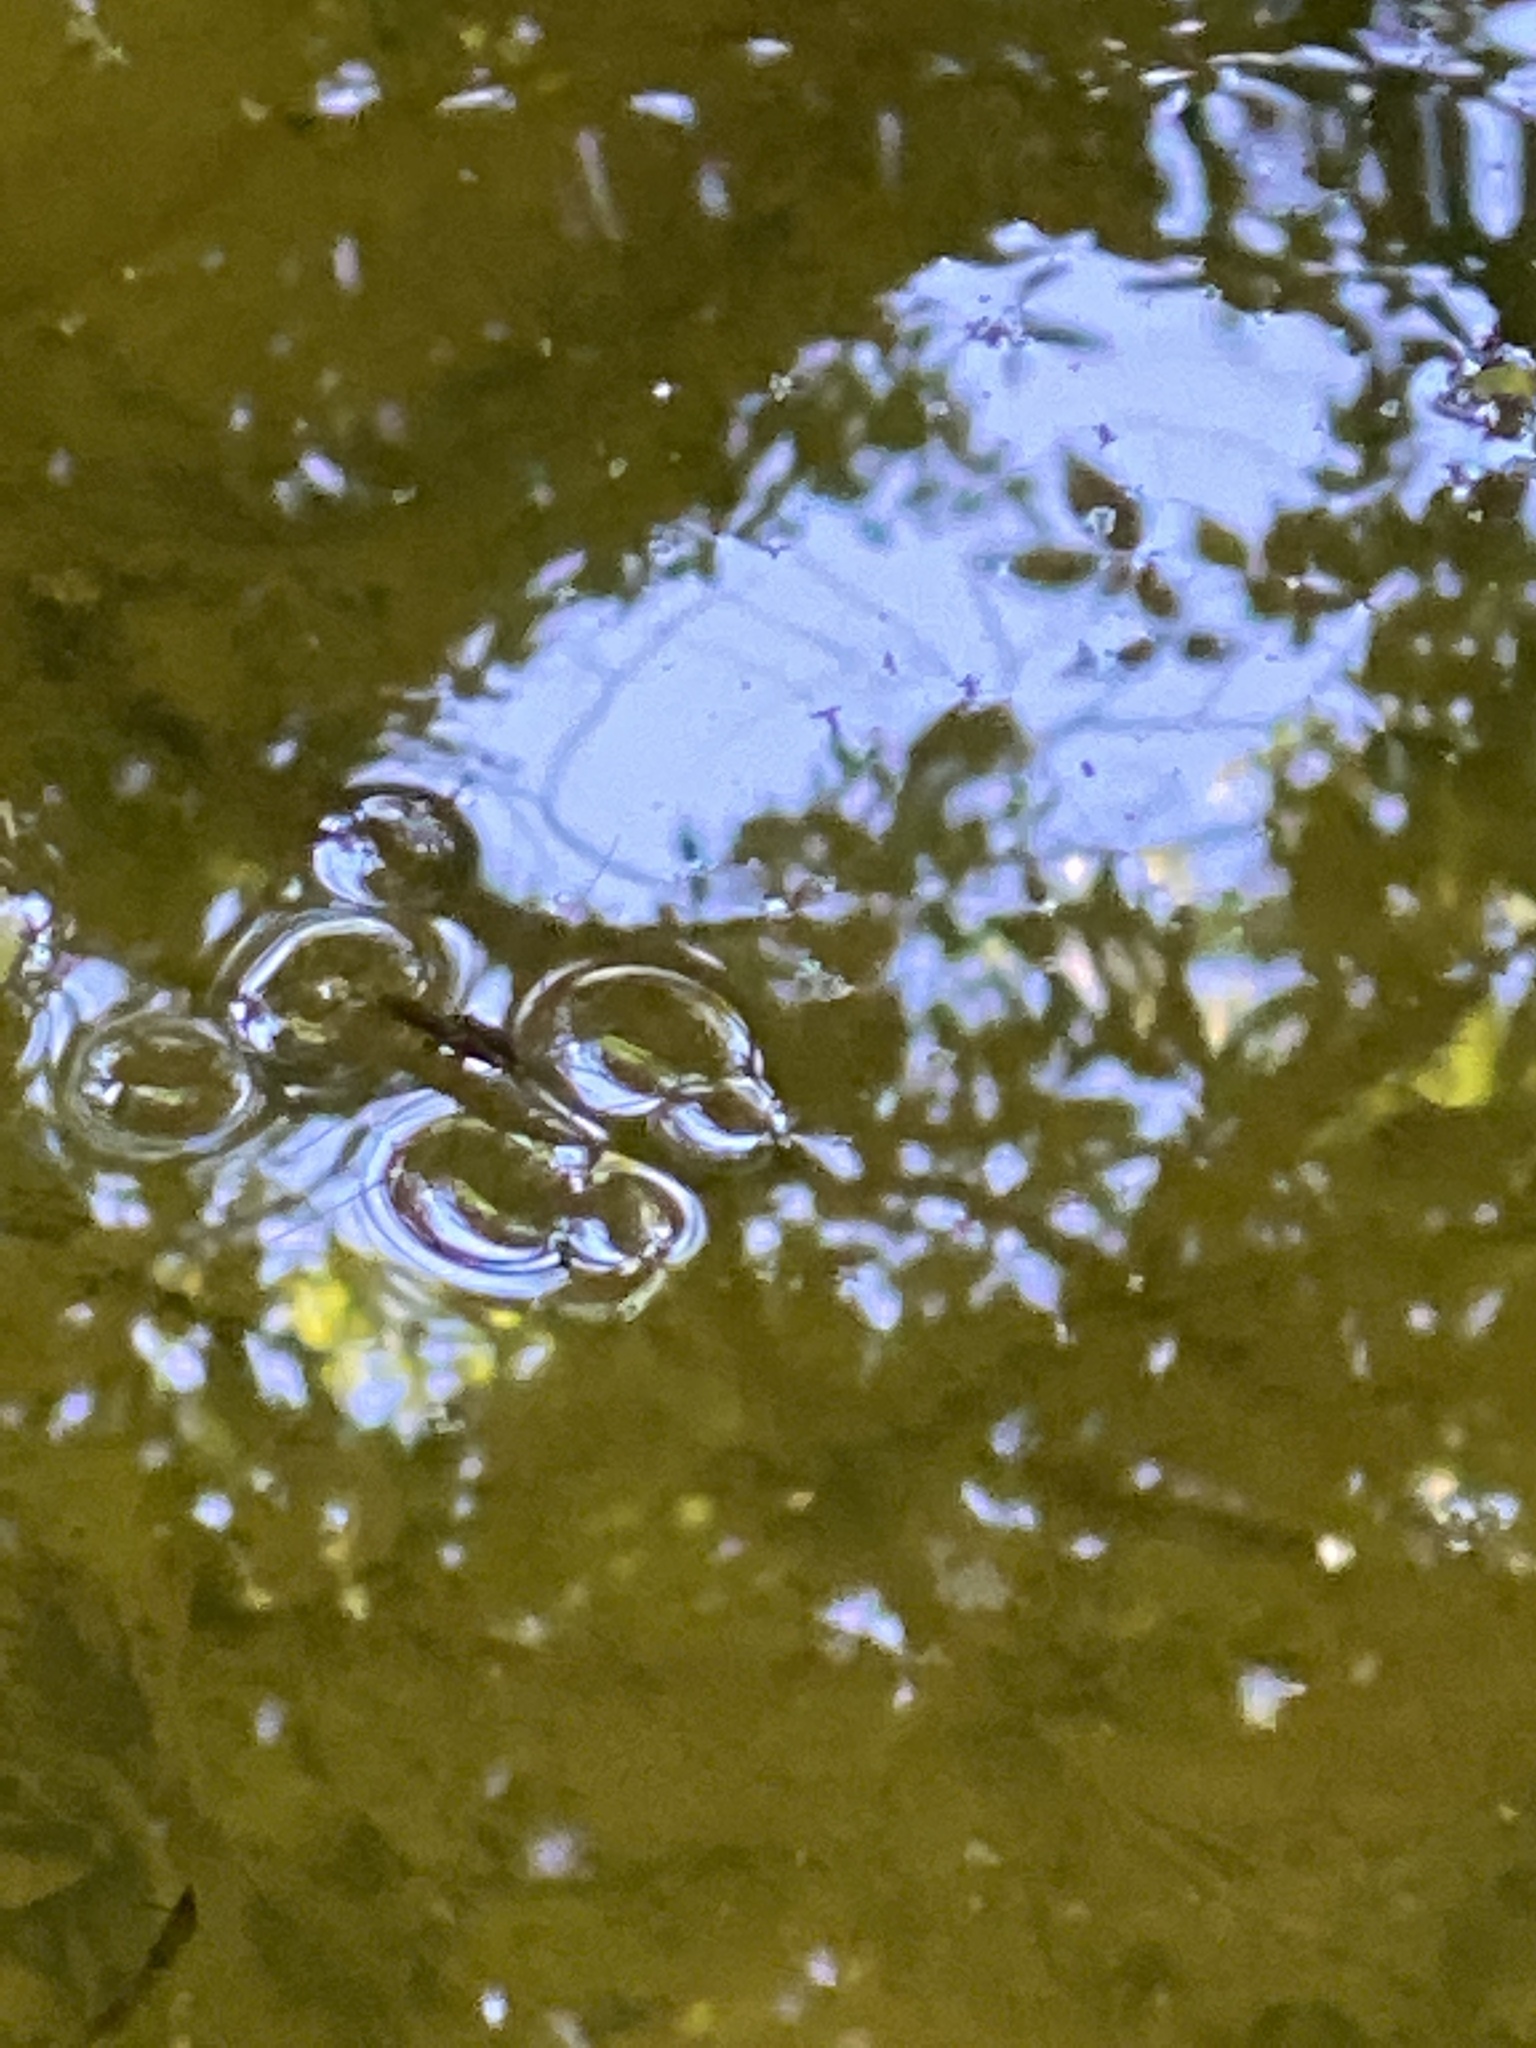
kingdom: Animalia
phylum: Arthropoda
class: Insecta
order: Hemiptera
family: Gerridae
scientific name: Gerridae
